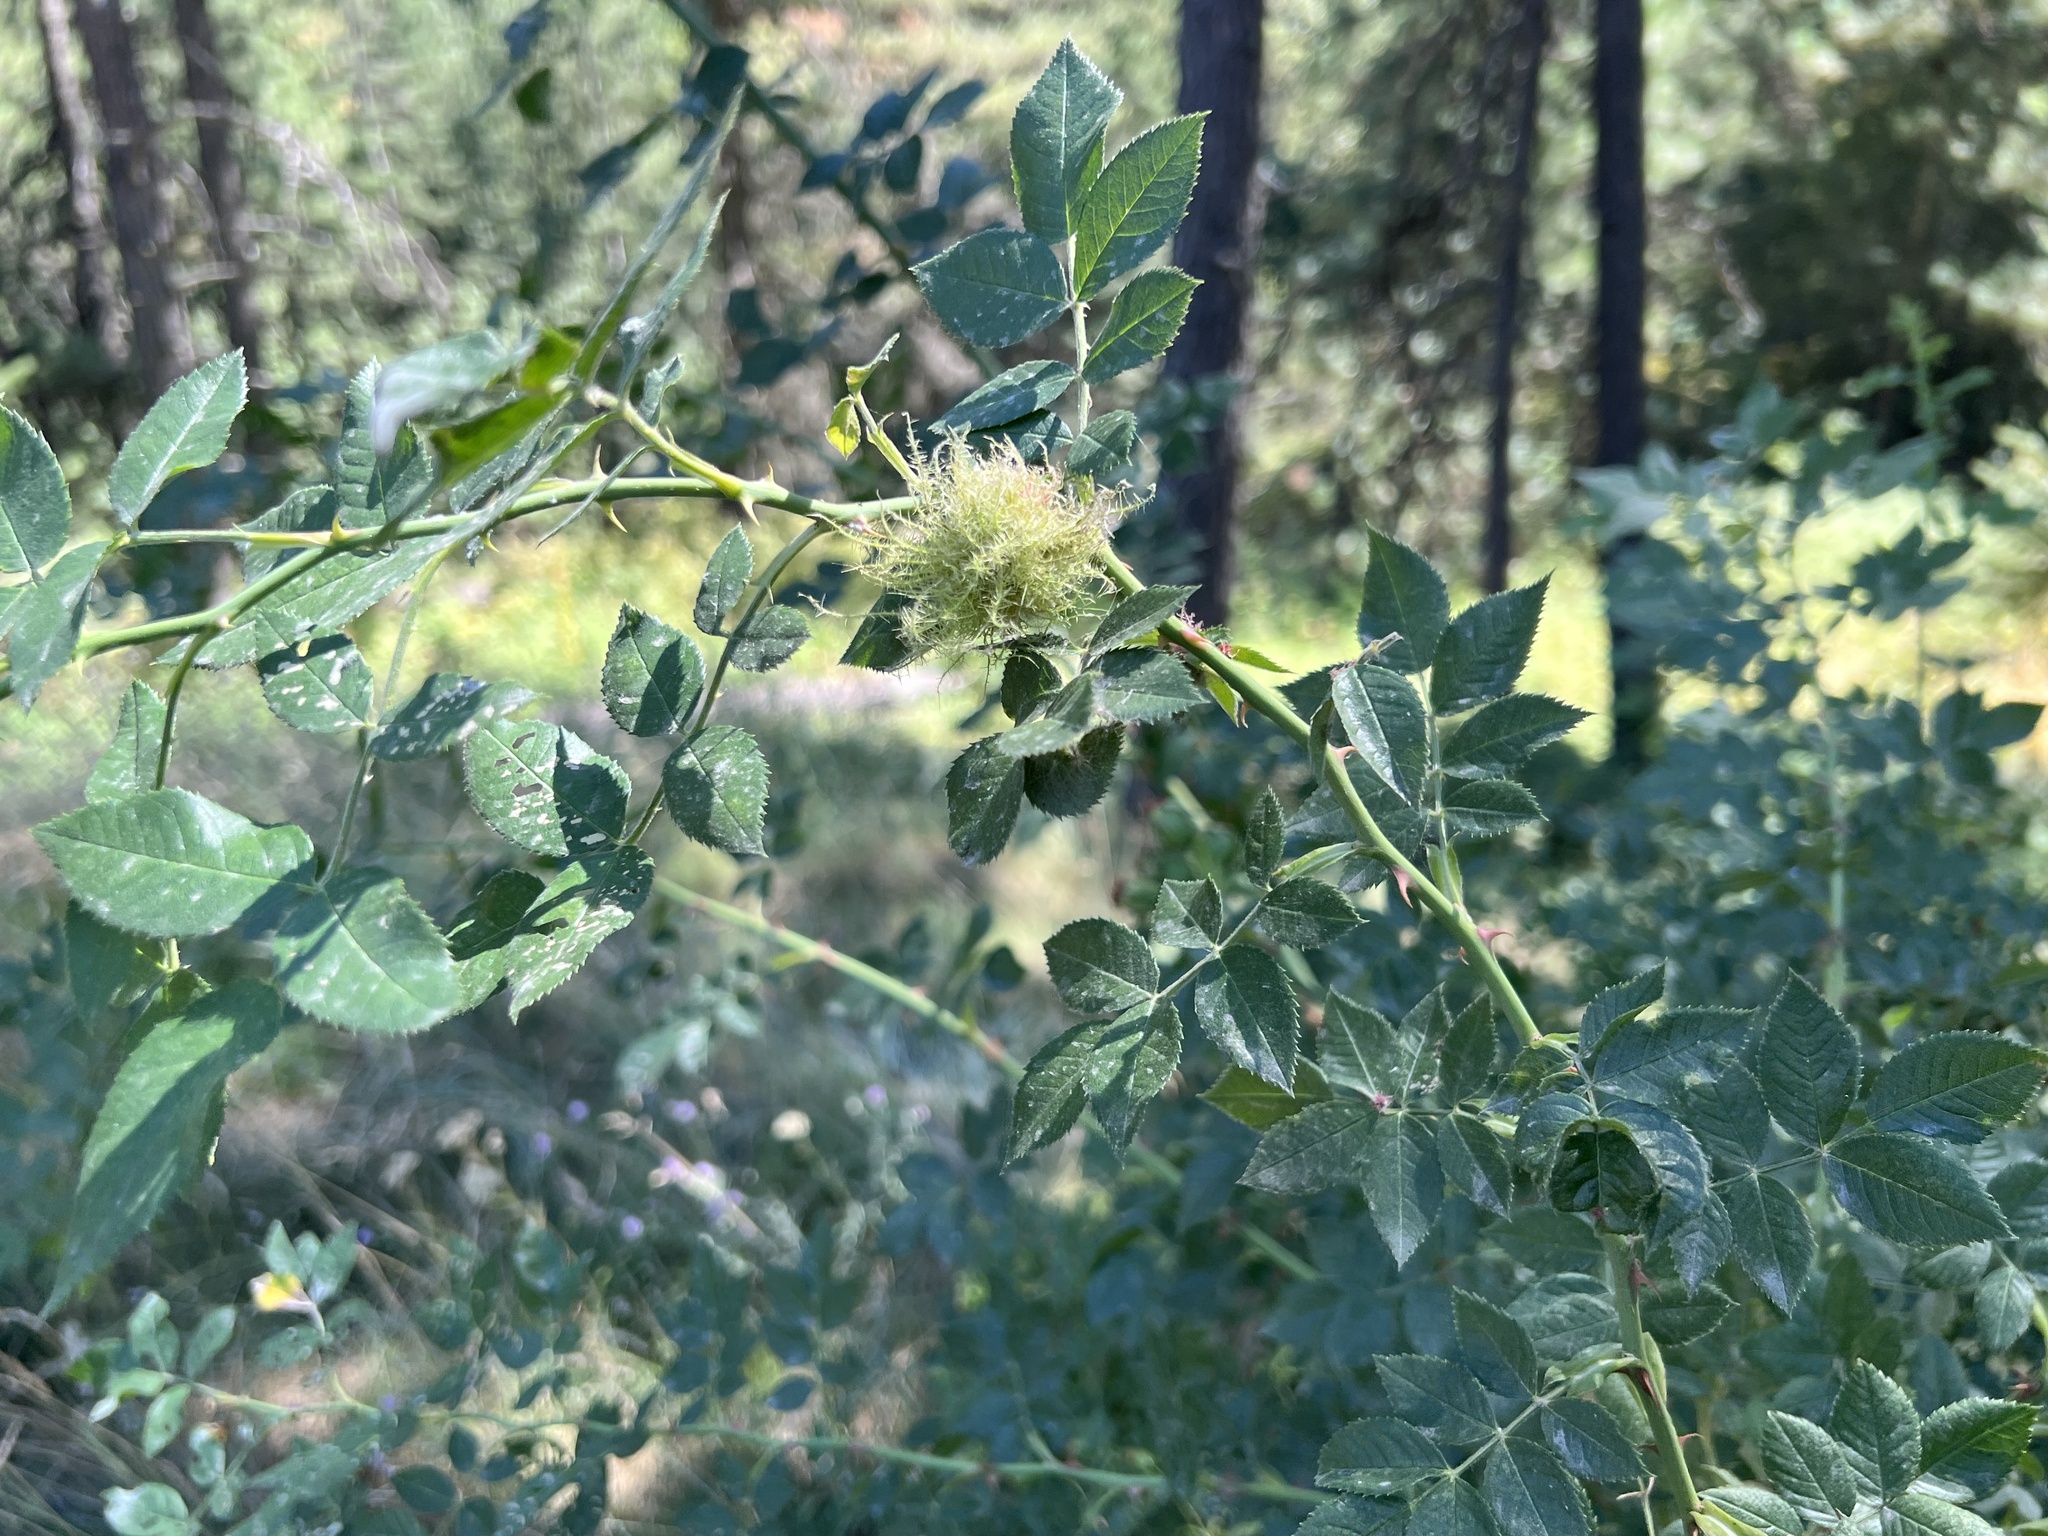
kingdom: Animalia
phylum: Arthropoda
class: Insecta
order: Hymenoptera
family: Cynipidae
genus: Diplolepis
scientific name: Diplolepis rosae
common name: Bedeguar gall
